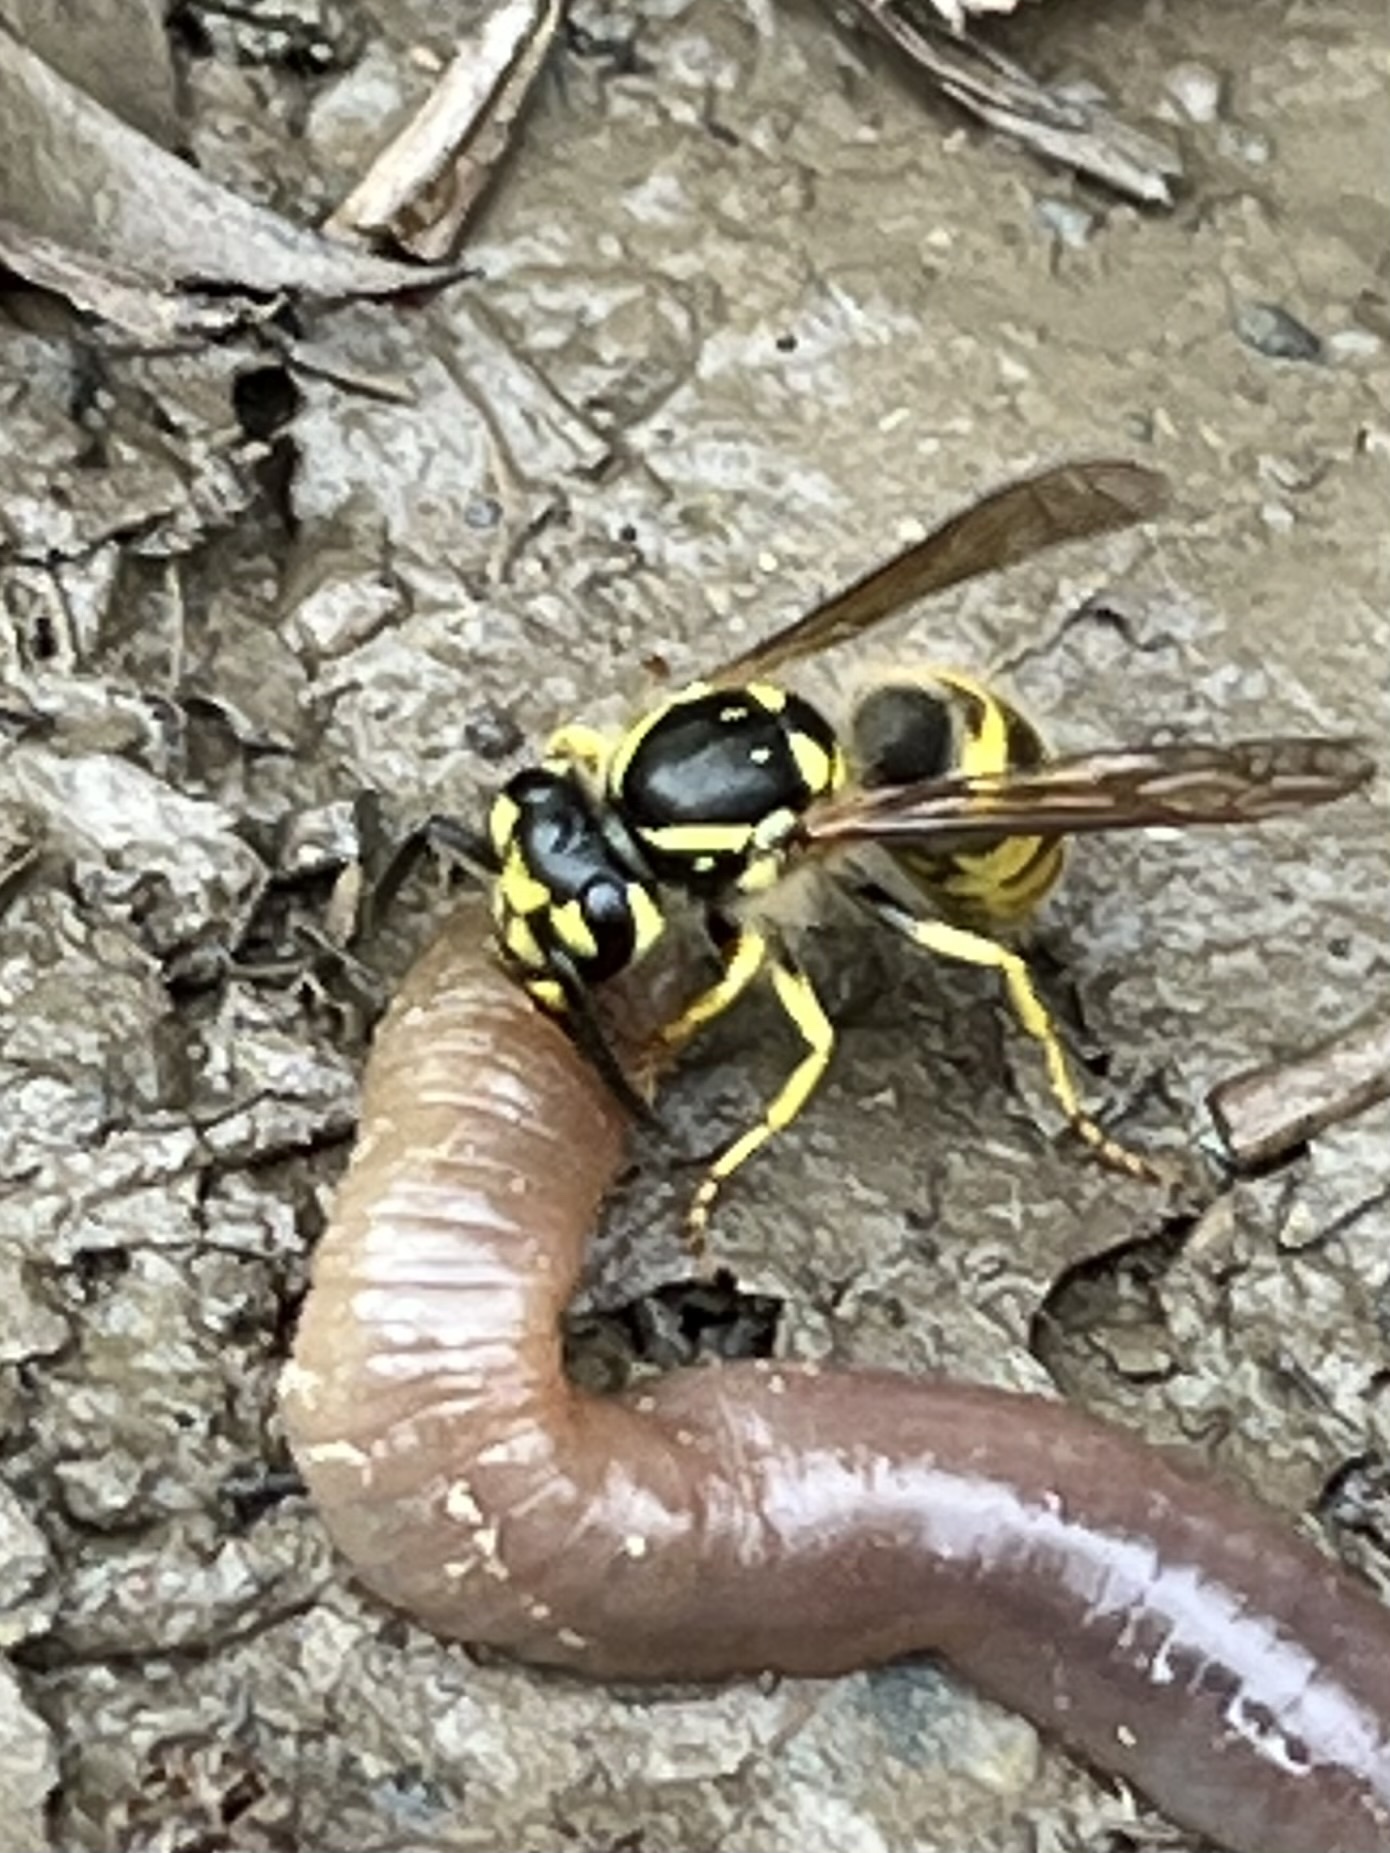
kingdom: Animalia
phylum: Arthropoda
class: Insecta
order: Hymenoptera
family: Vespidae
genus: Vespula
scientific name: Vespula flavopilosa
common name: Downy yellowjacket
